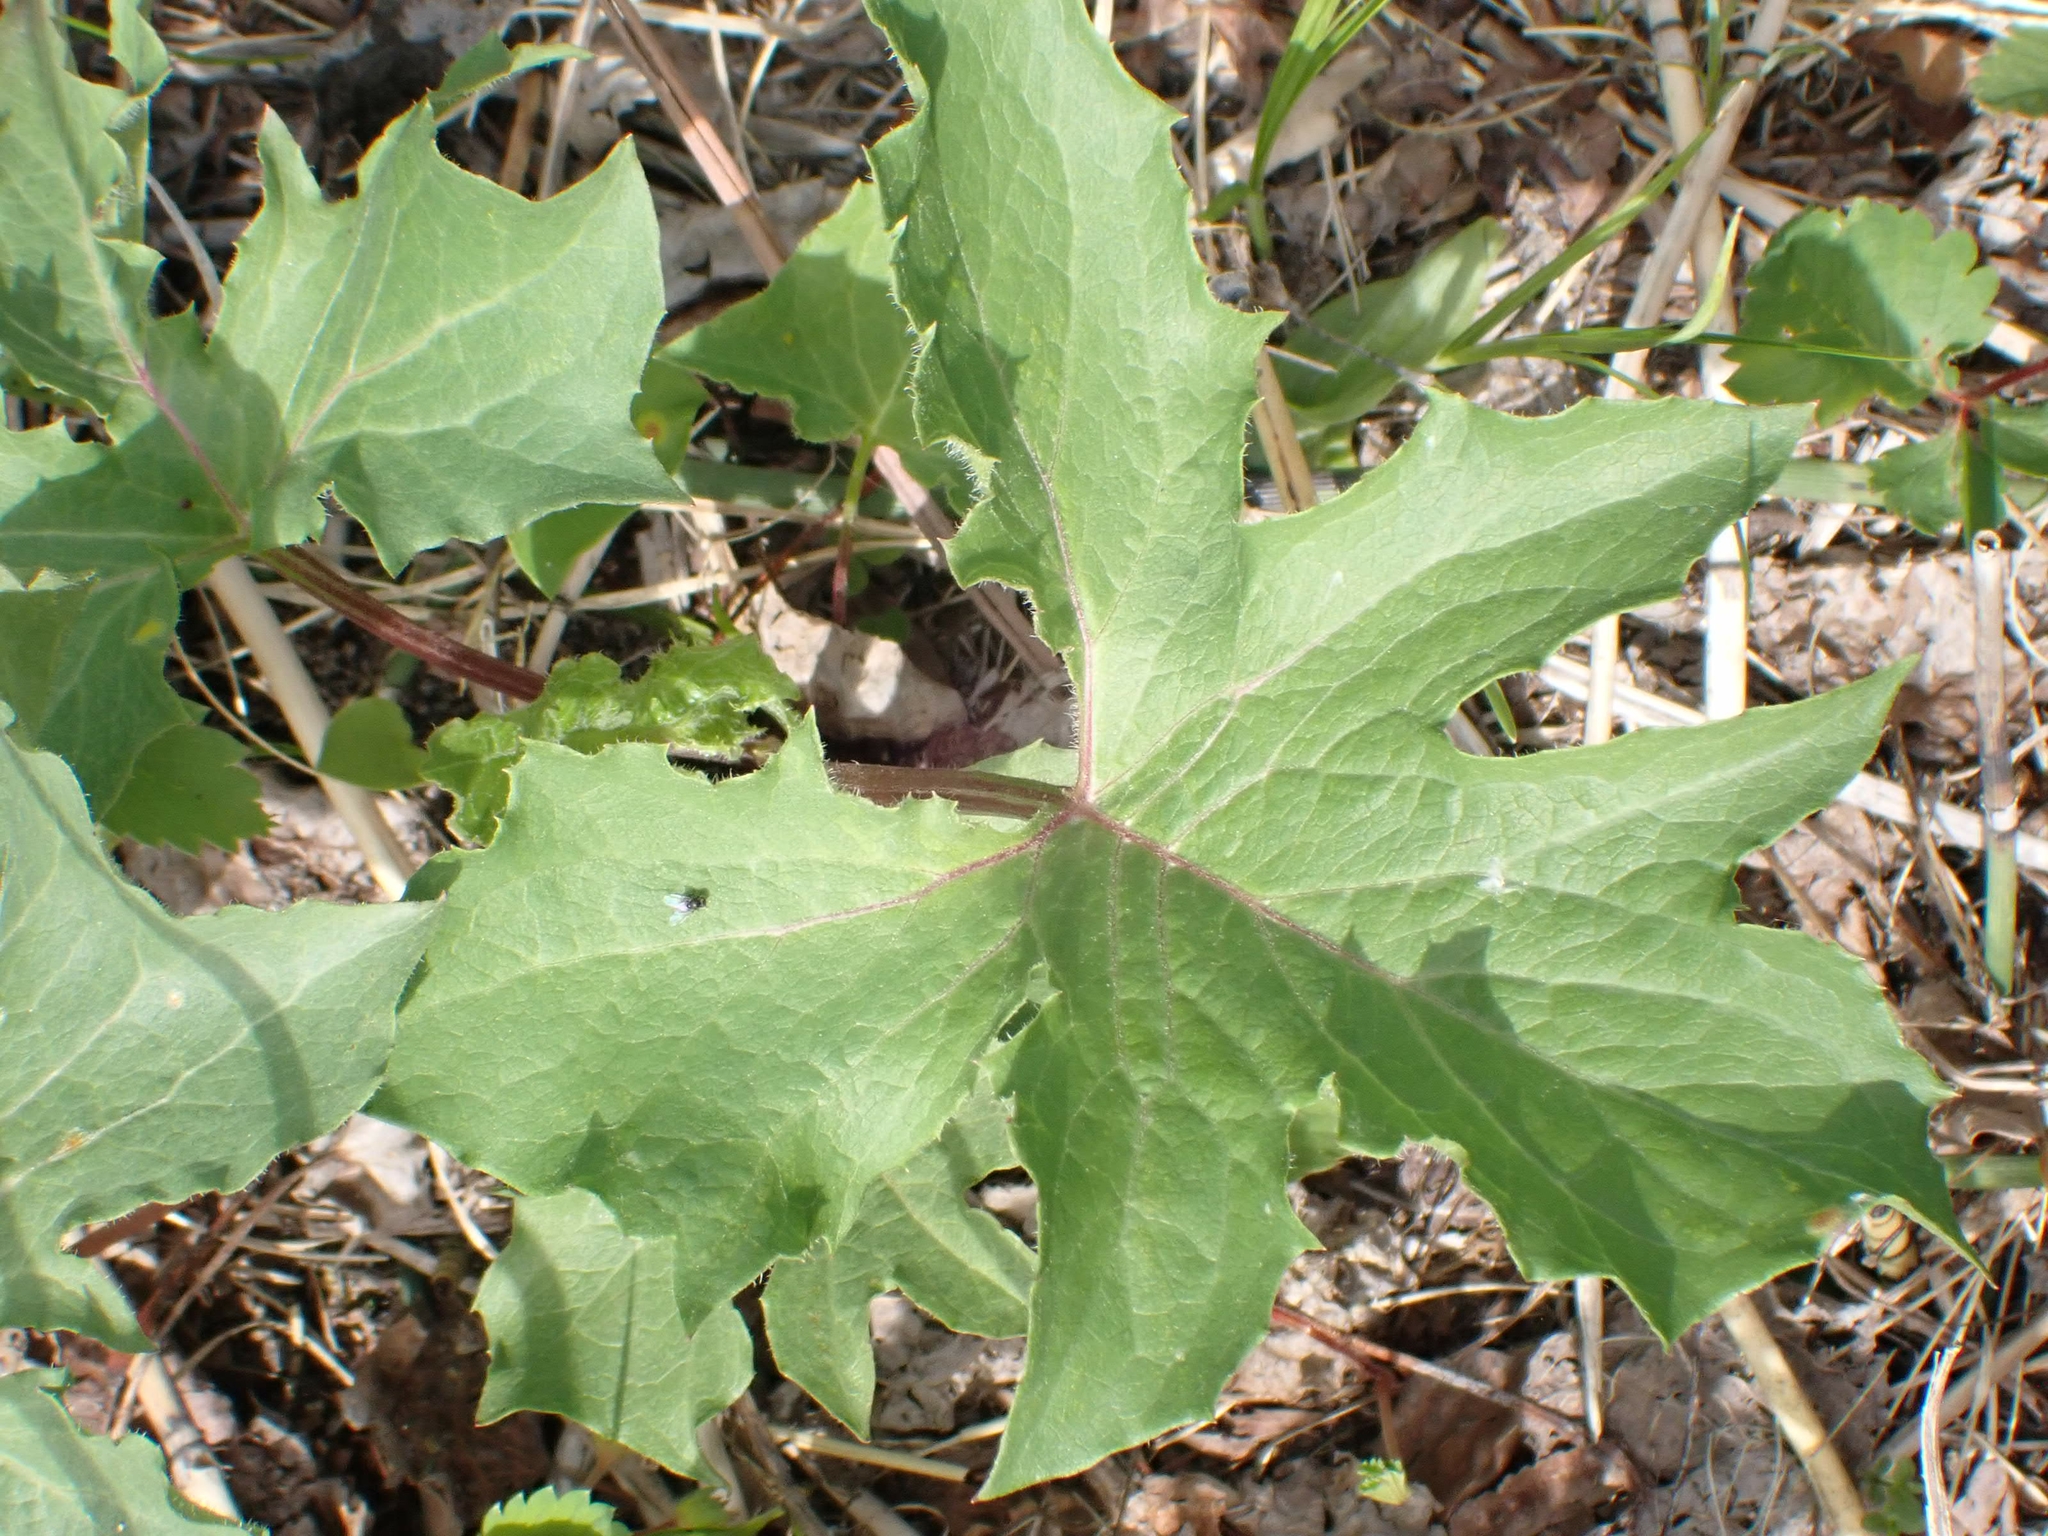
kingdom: Plantae
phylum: Tracheophyta
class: Magnoliopsida
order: Asterales
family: Asteraceae
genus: Nabalus
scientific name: Nabalus albus
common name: White rattlesnakeroot
